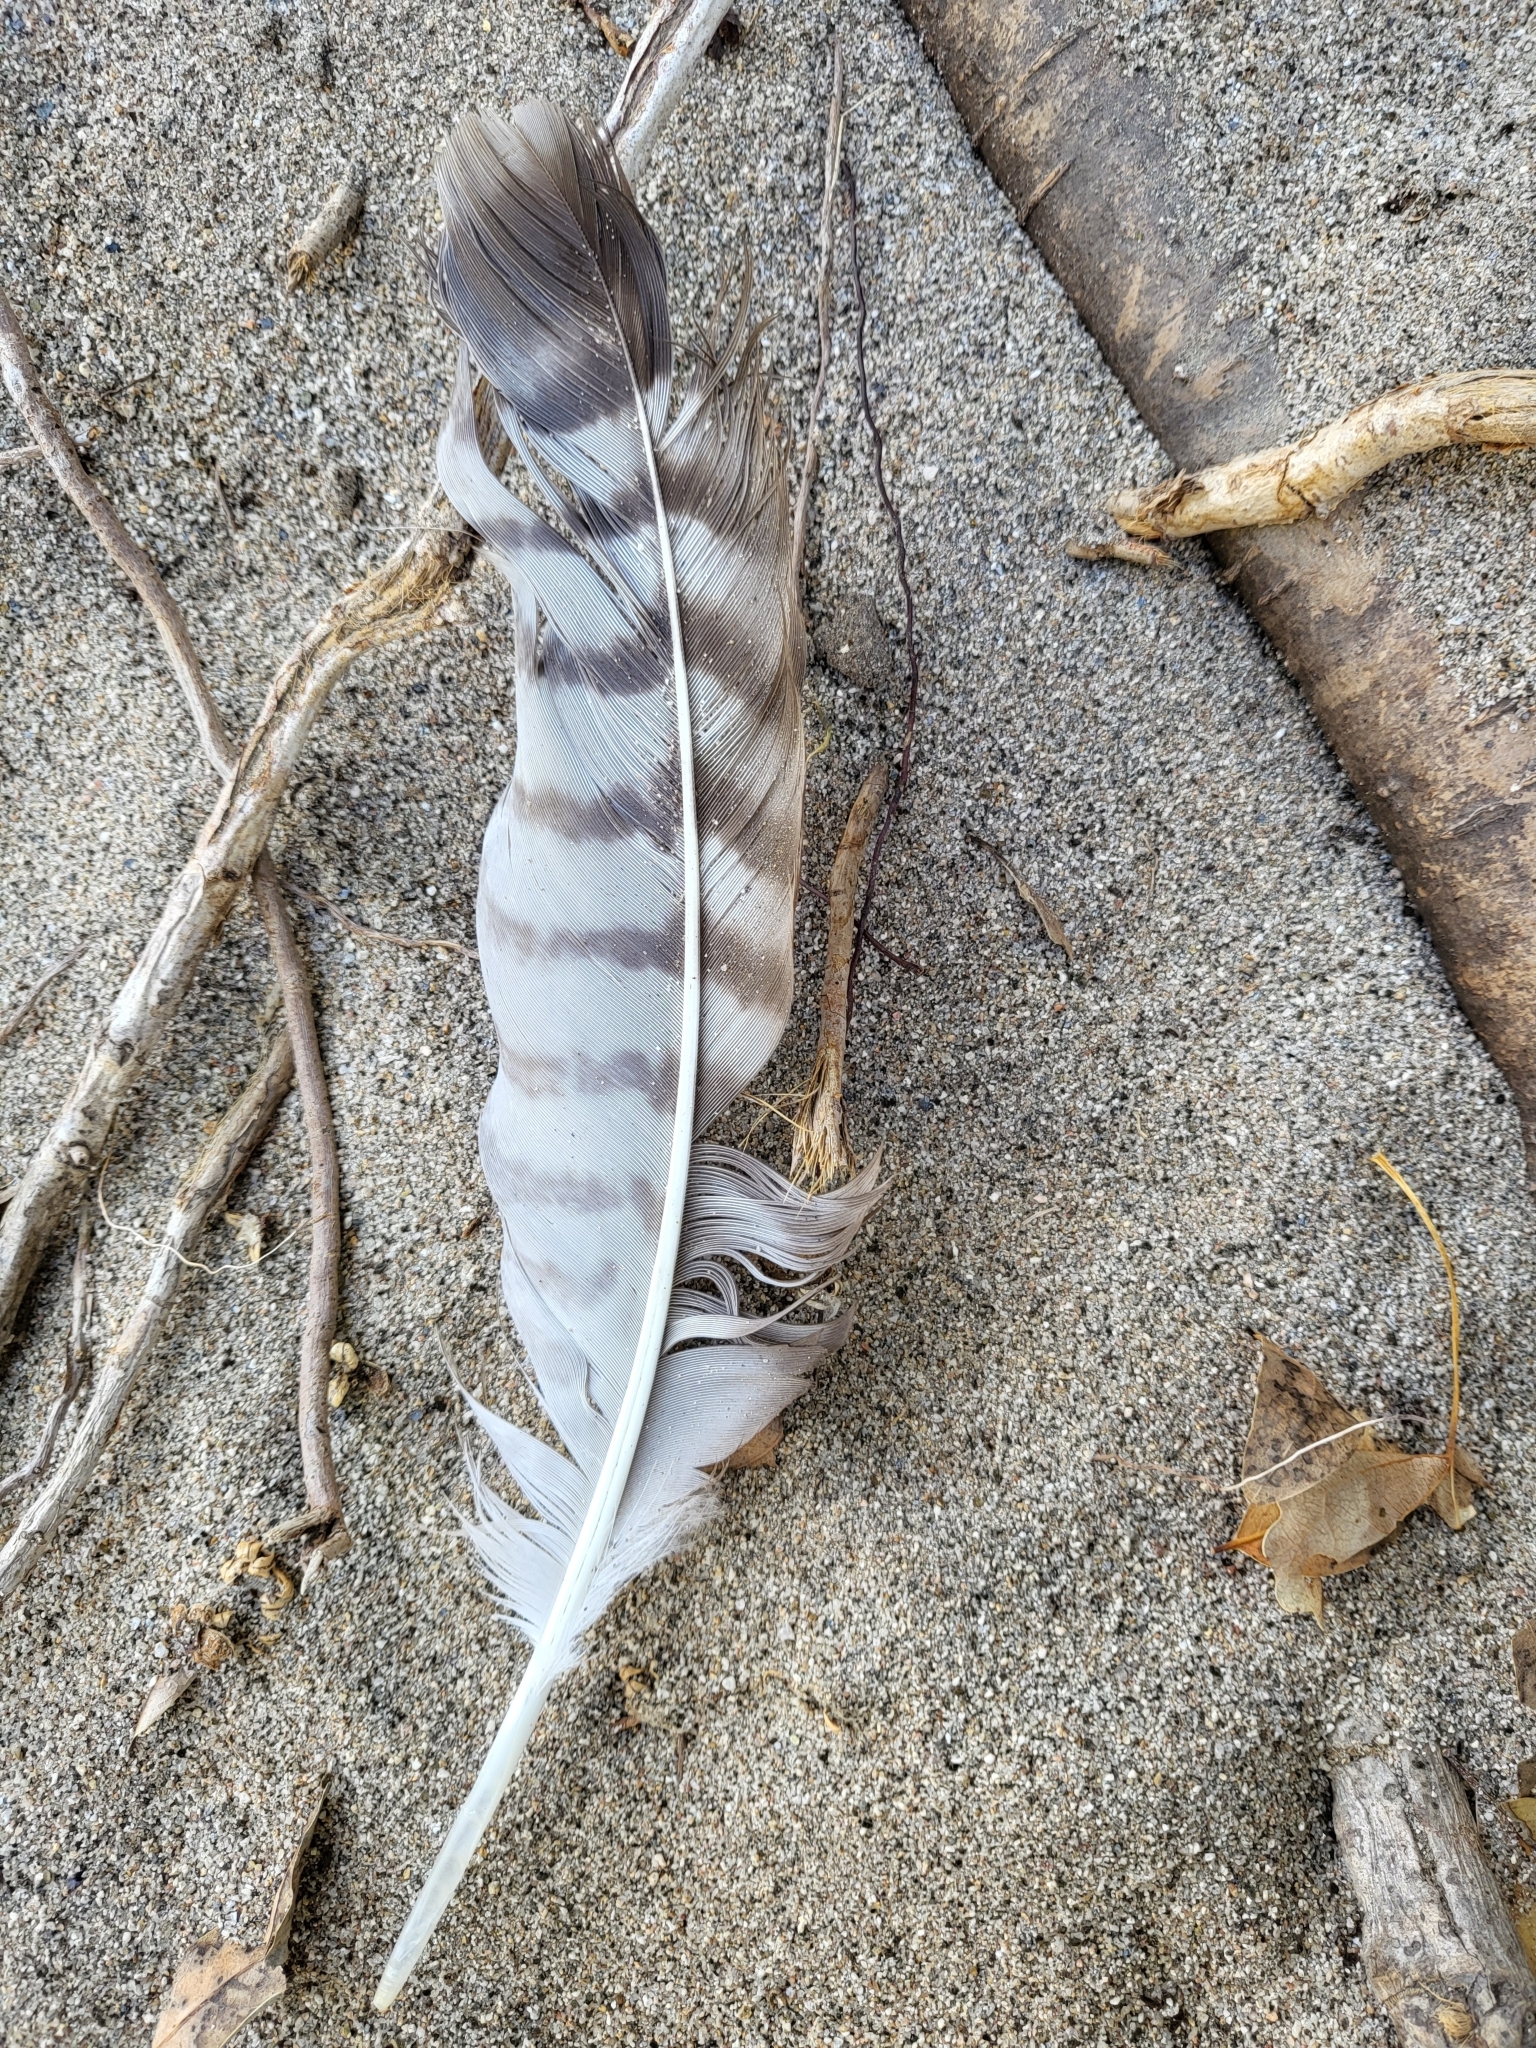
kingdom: Animalia
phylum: Chordata
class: Aves
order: Accipitriformes
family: Accipitridae
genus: Buteo
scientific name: Buteo jamaicensis
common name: Red-tailed hawk
